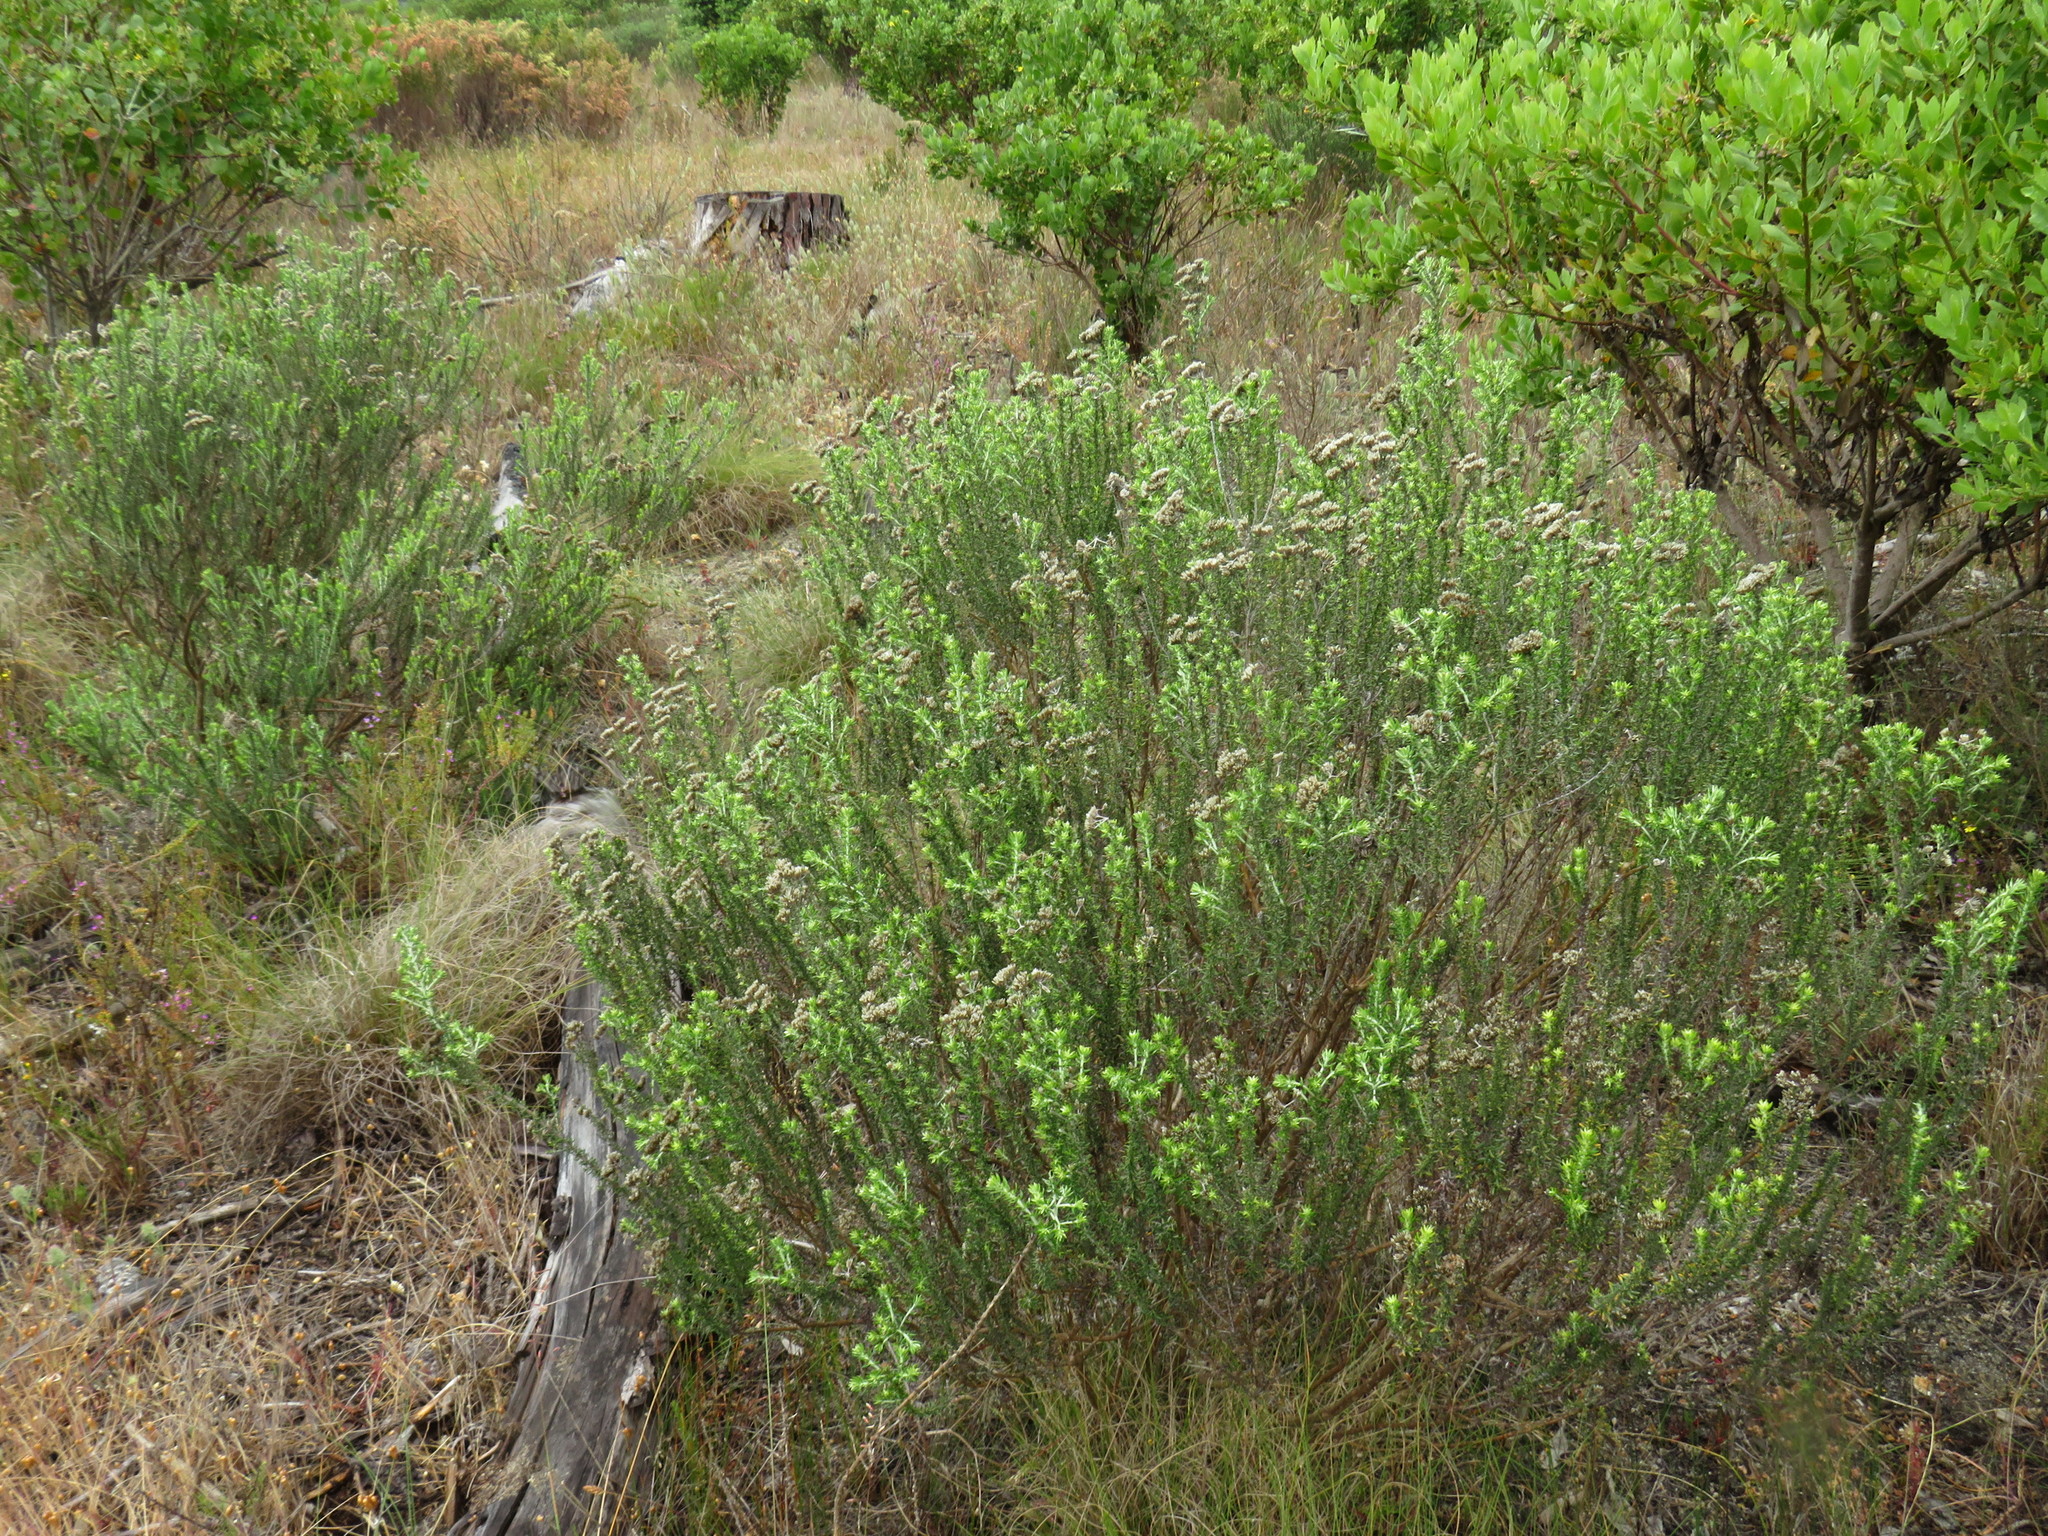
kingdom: Plantae
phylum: Tracheophyta
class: Magnoliopsida
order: Asterales
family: Asteraceae
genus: Metalasia
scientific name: Metalasia densa
